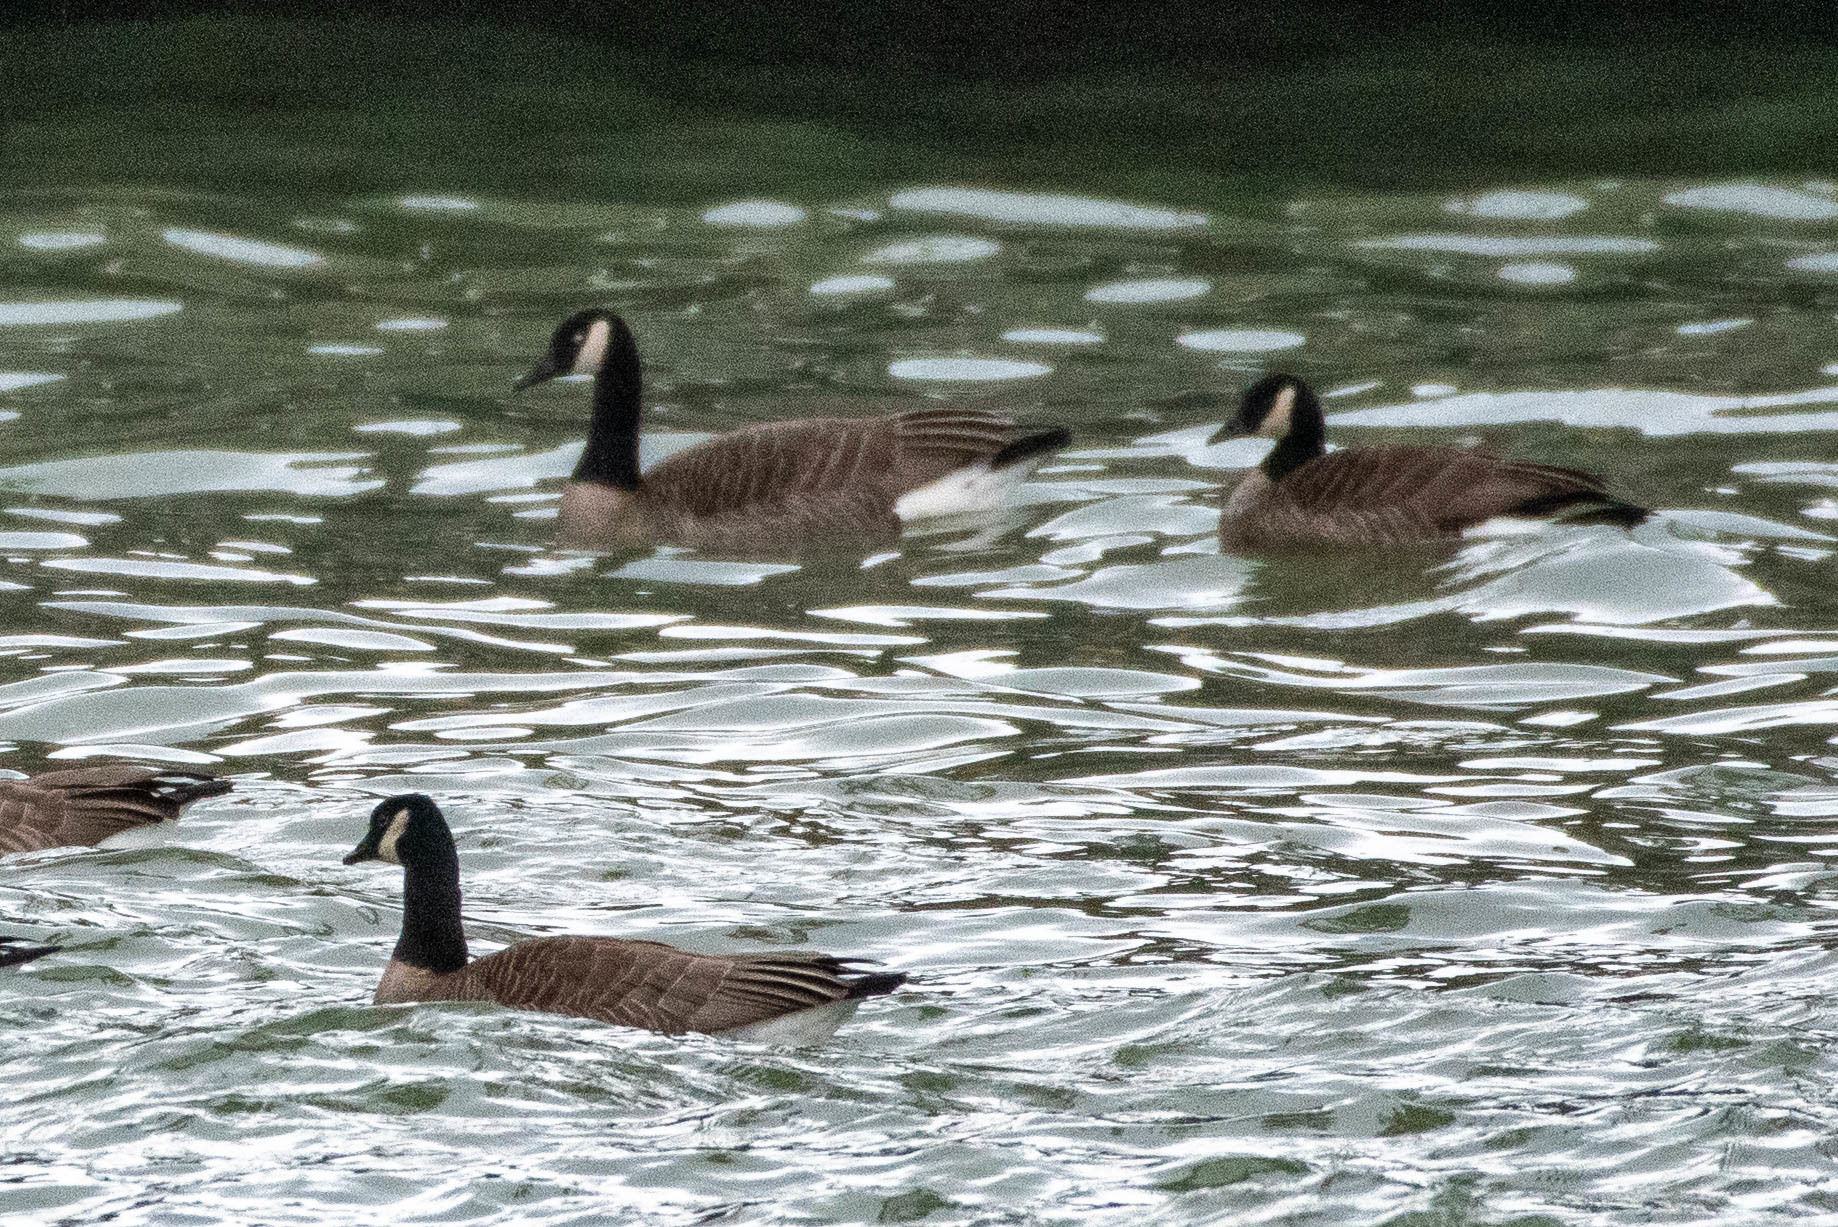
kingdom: Animalia
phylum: Chordata
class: Aves
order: Anseriformes
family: Anatidae
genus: Branta
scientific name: Branta canadensis
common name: Canada goose
